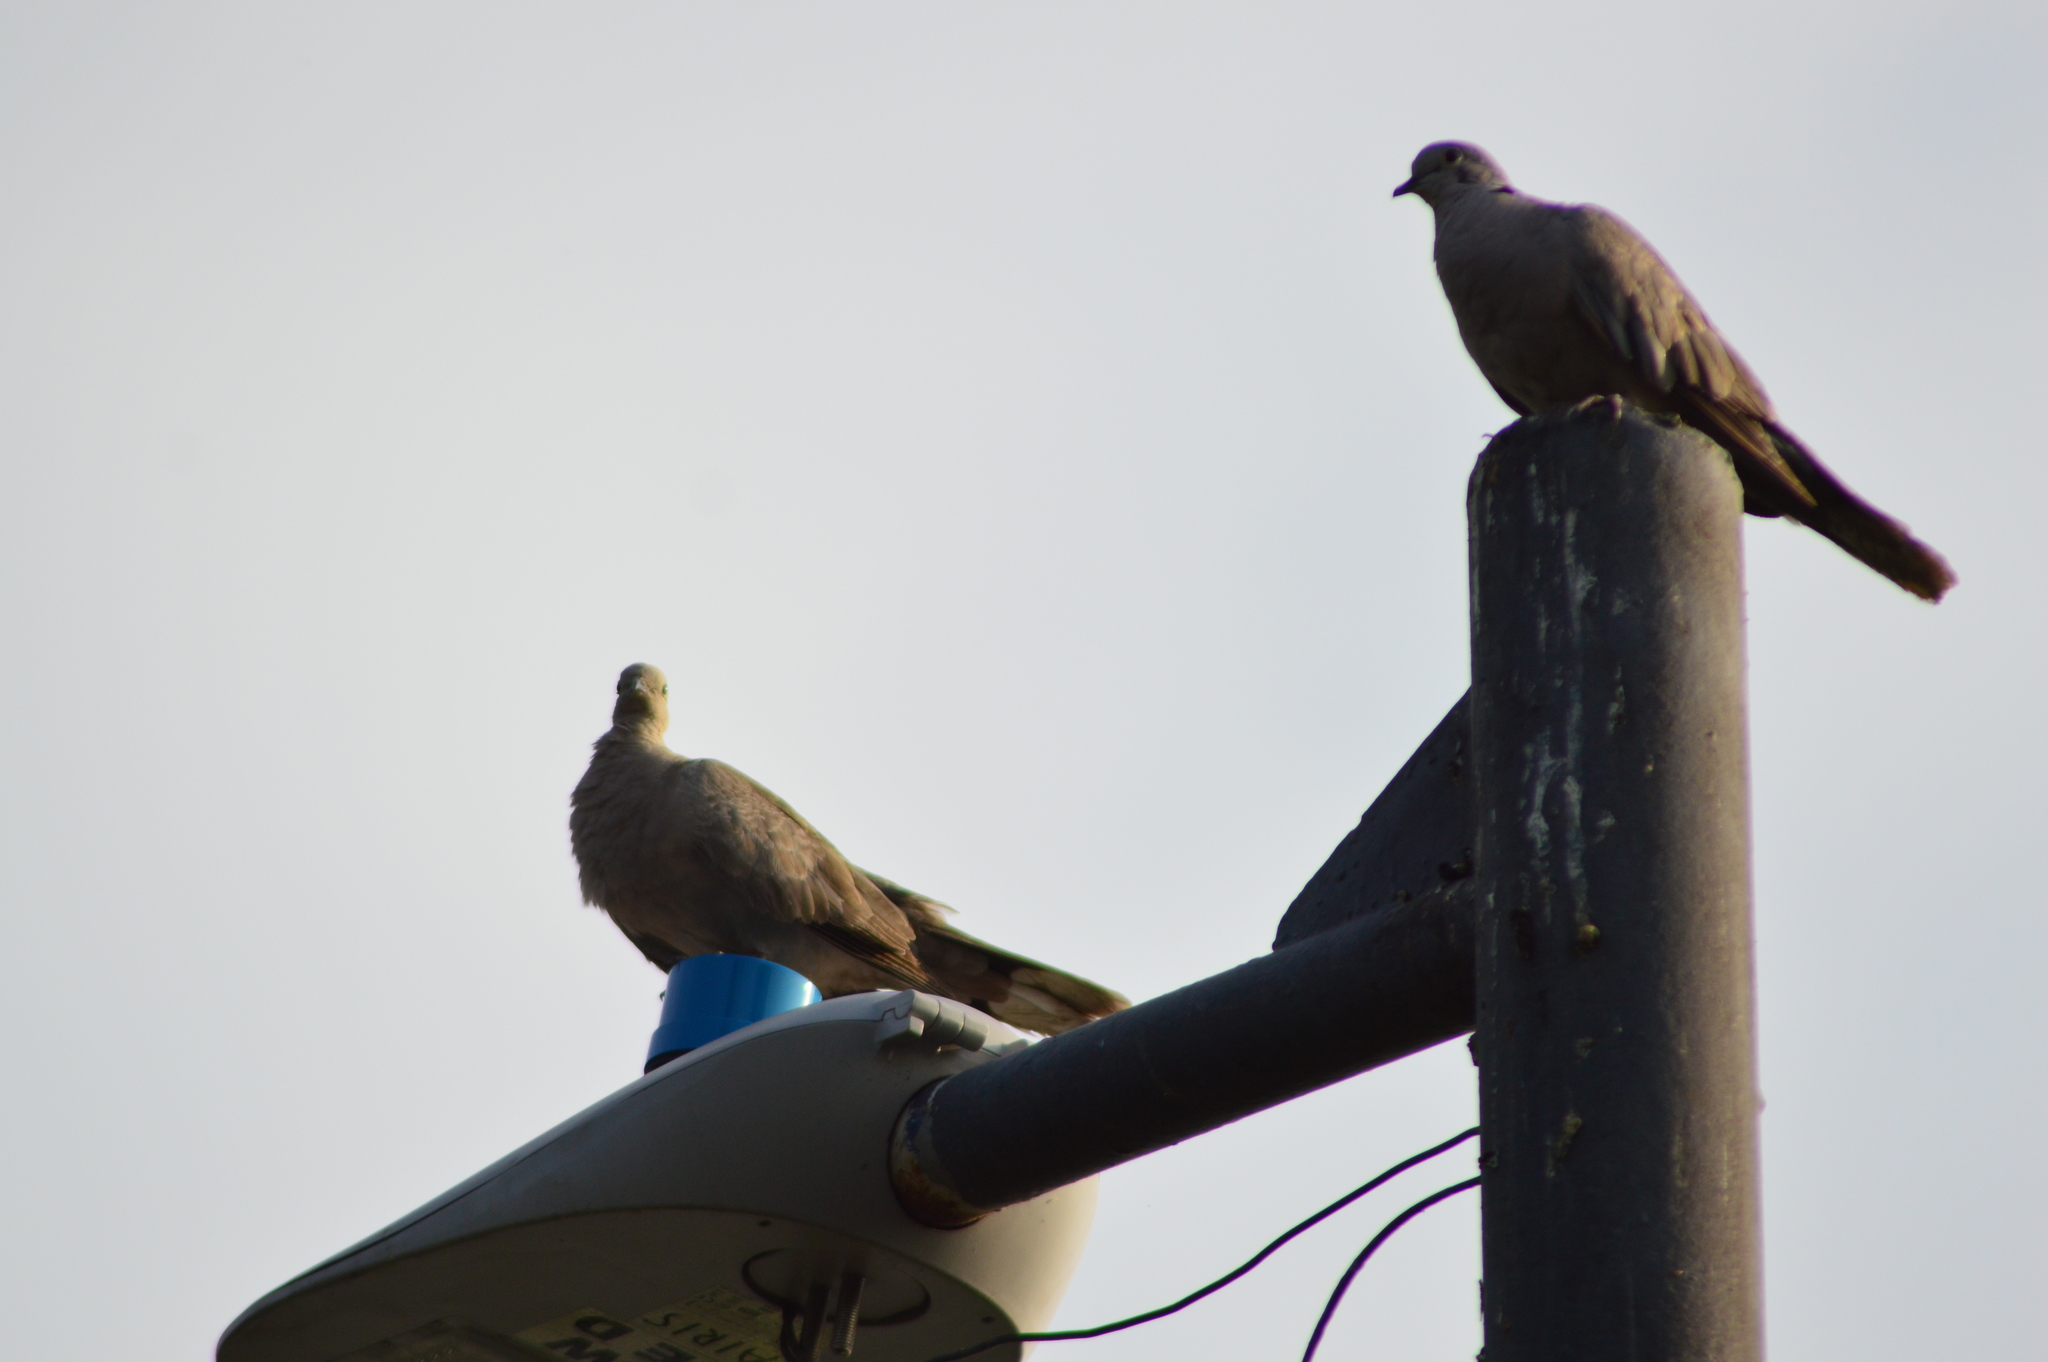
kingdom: Animalia
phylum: Chordata
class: Aves
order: Columbiformes
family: Columbidae
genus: Streptopelia
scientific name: Streptopelia decaocto
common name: Eurasian collared dove
